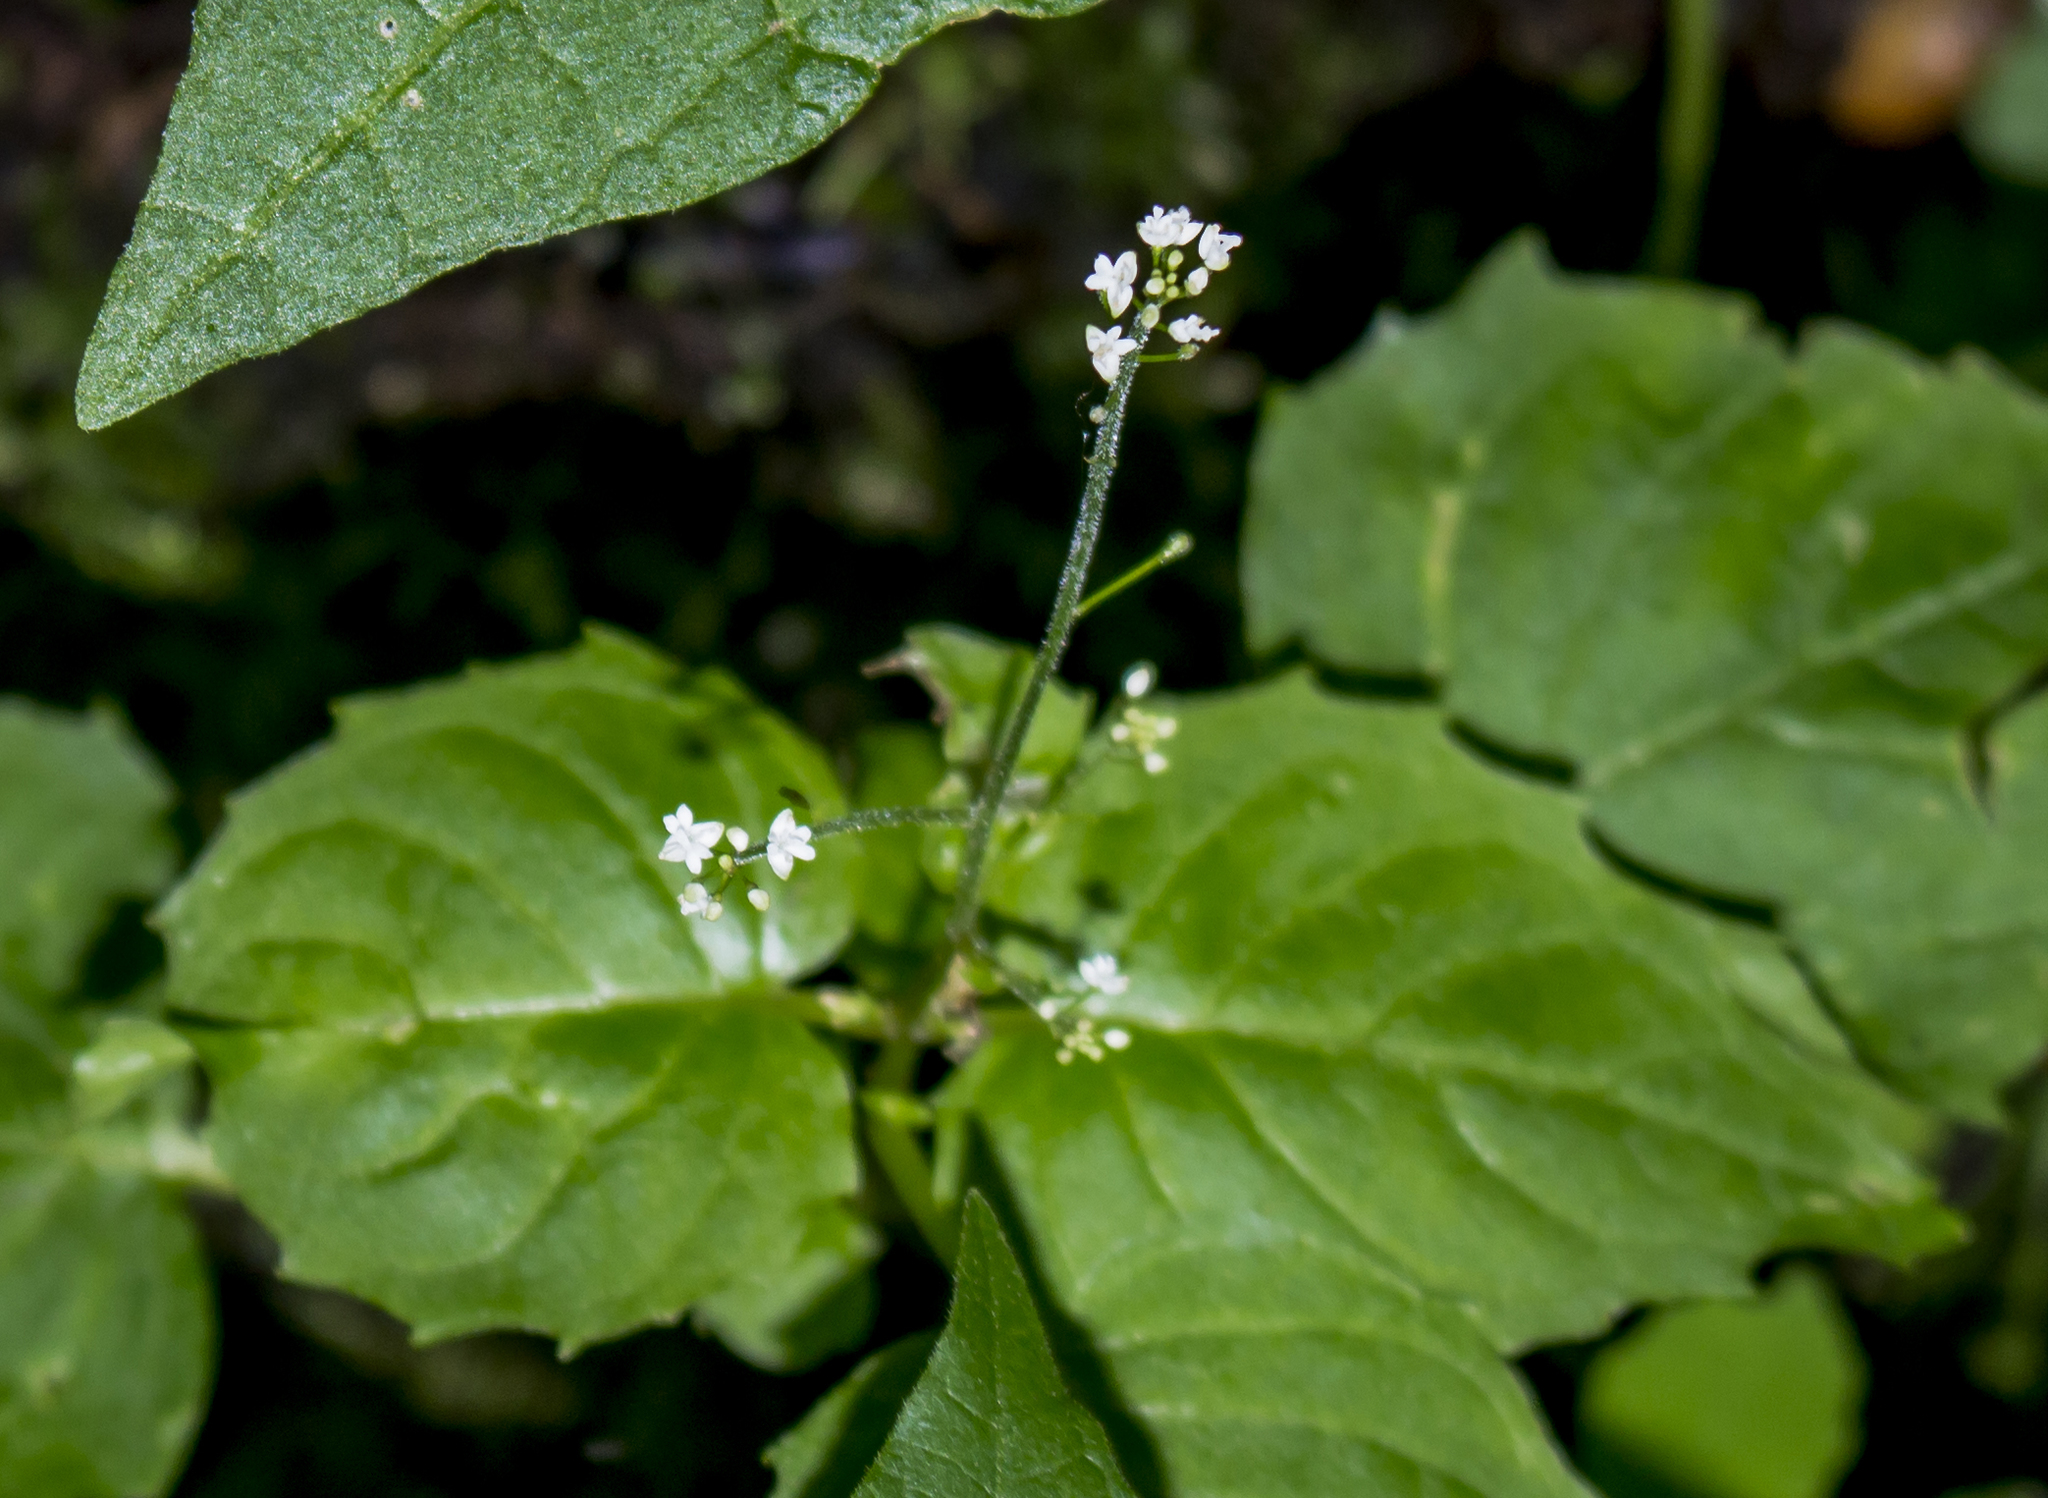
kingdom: Plantae
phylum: Tracheophyta
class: Magnoliopsida
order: Myrtales
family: Onagraceae
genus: Circaea
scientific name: Circaea alpina
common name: Alpine enchanter's-nightshade
